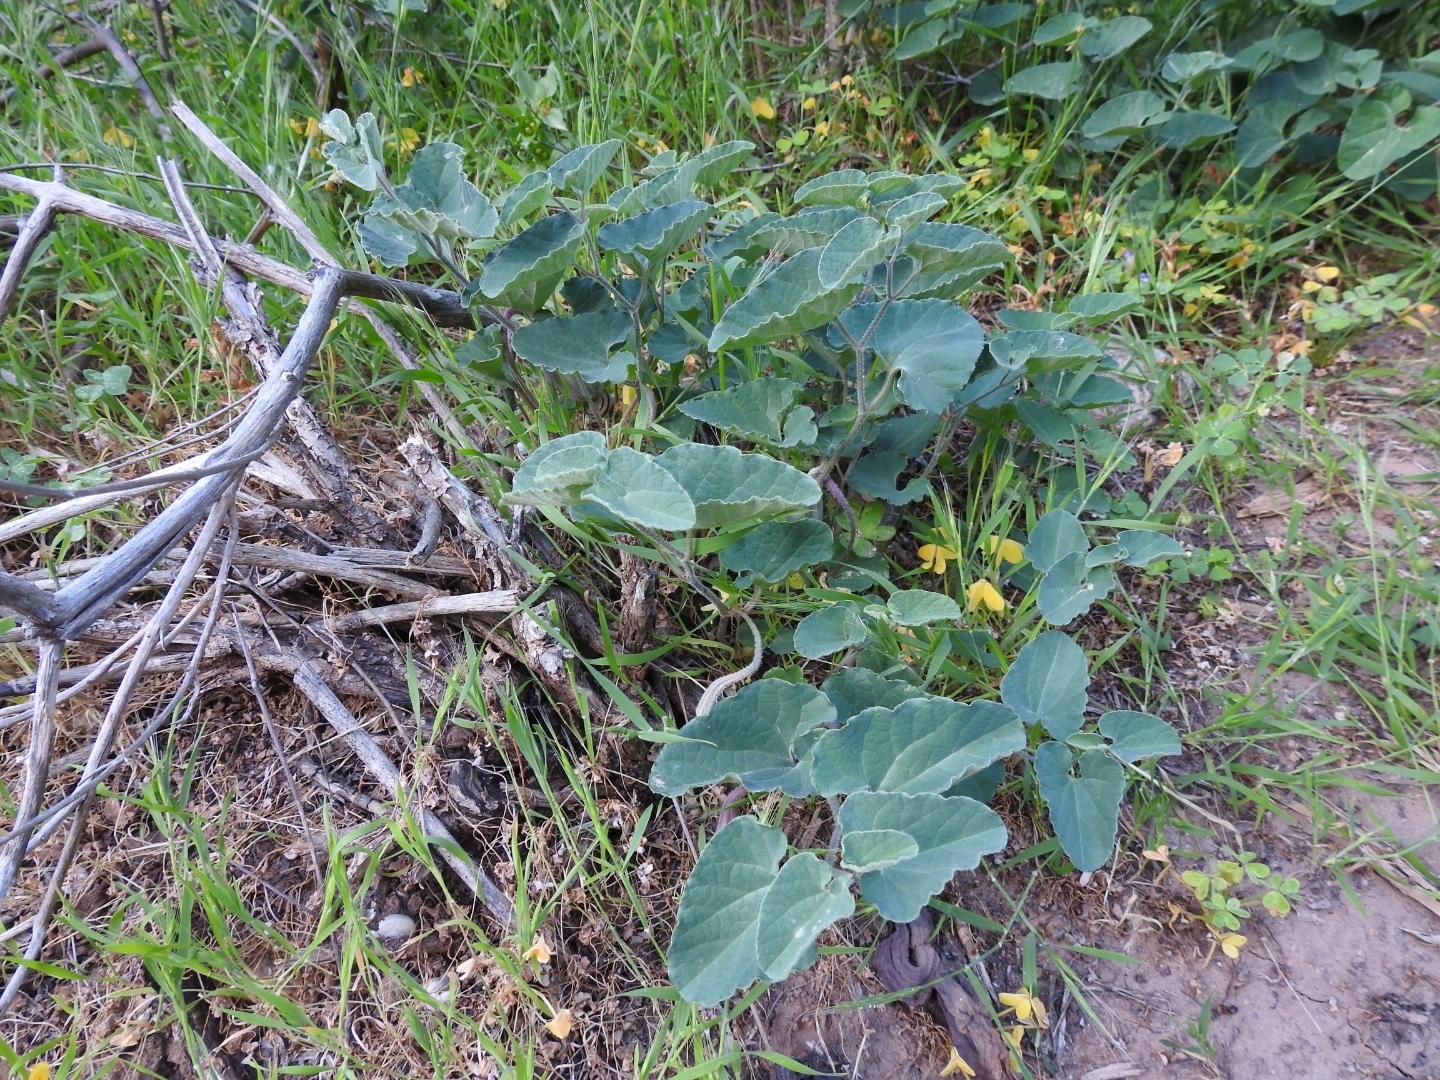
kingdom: Plantae
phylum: Tracheophyta
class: Magnoliopsida
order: Piperales
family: Aristolochiaceae
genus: Aristolochia
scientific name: Aristolochia cretica
